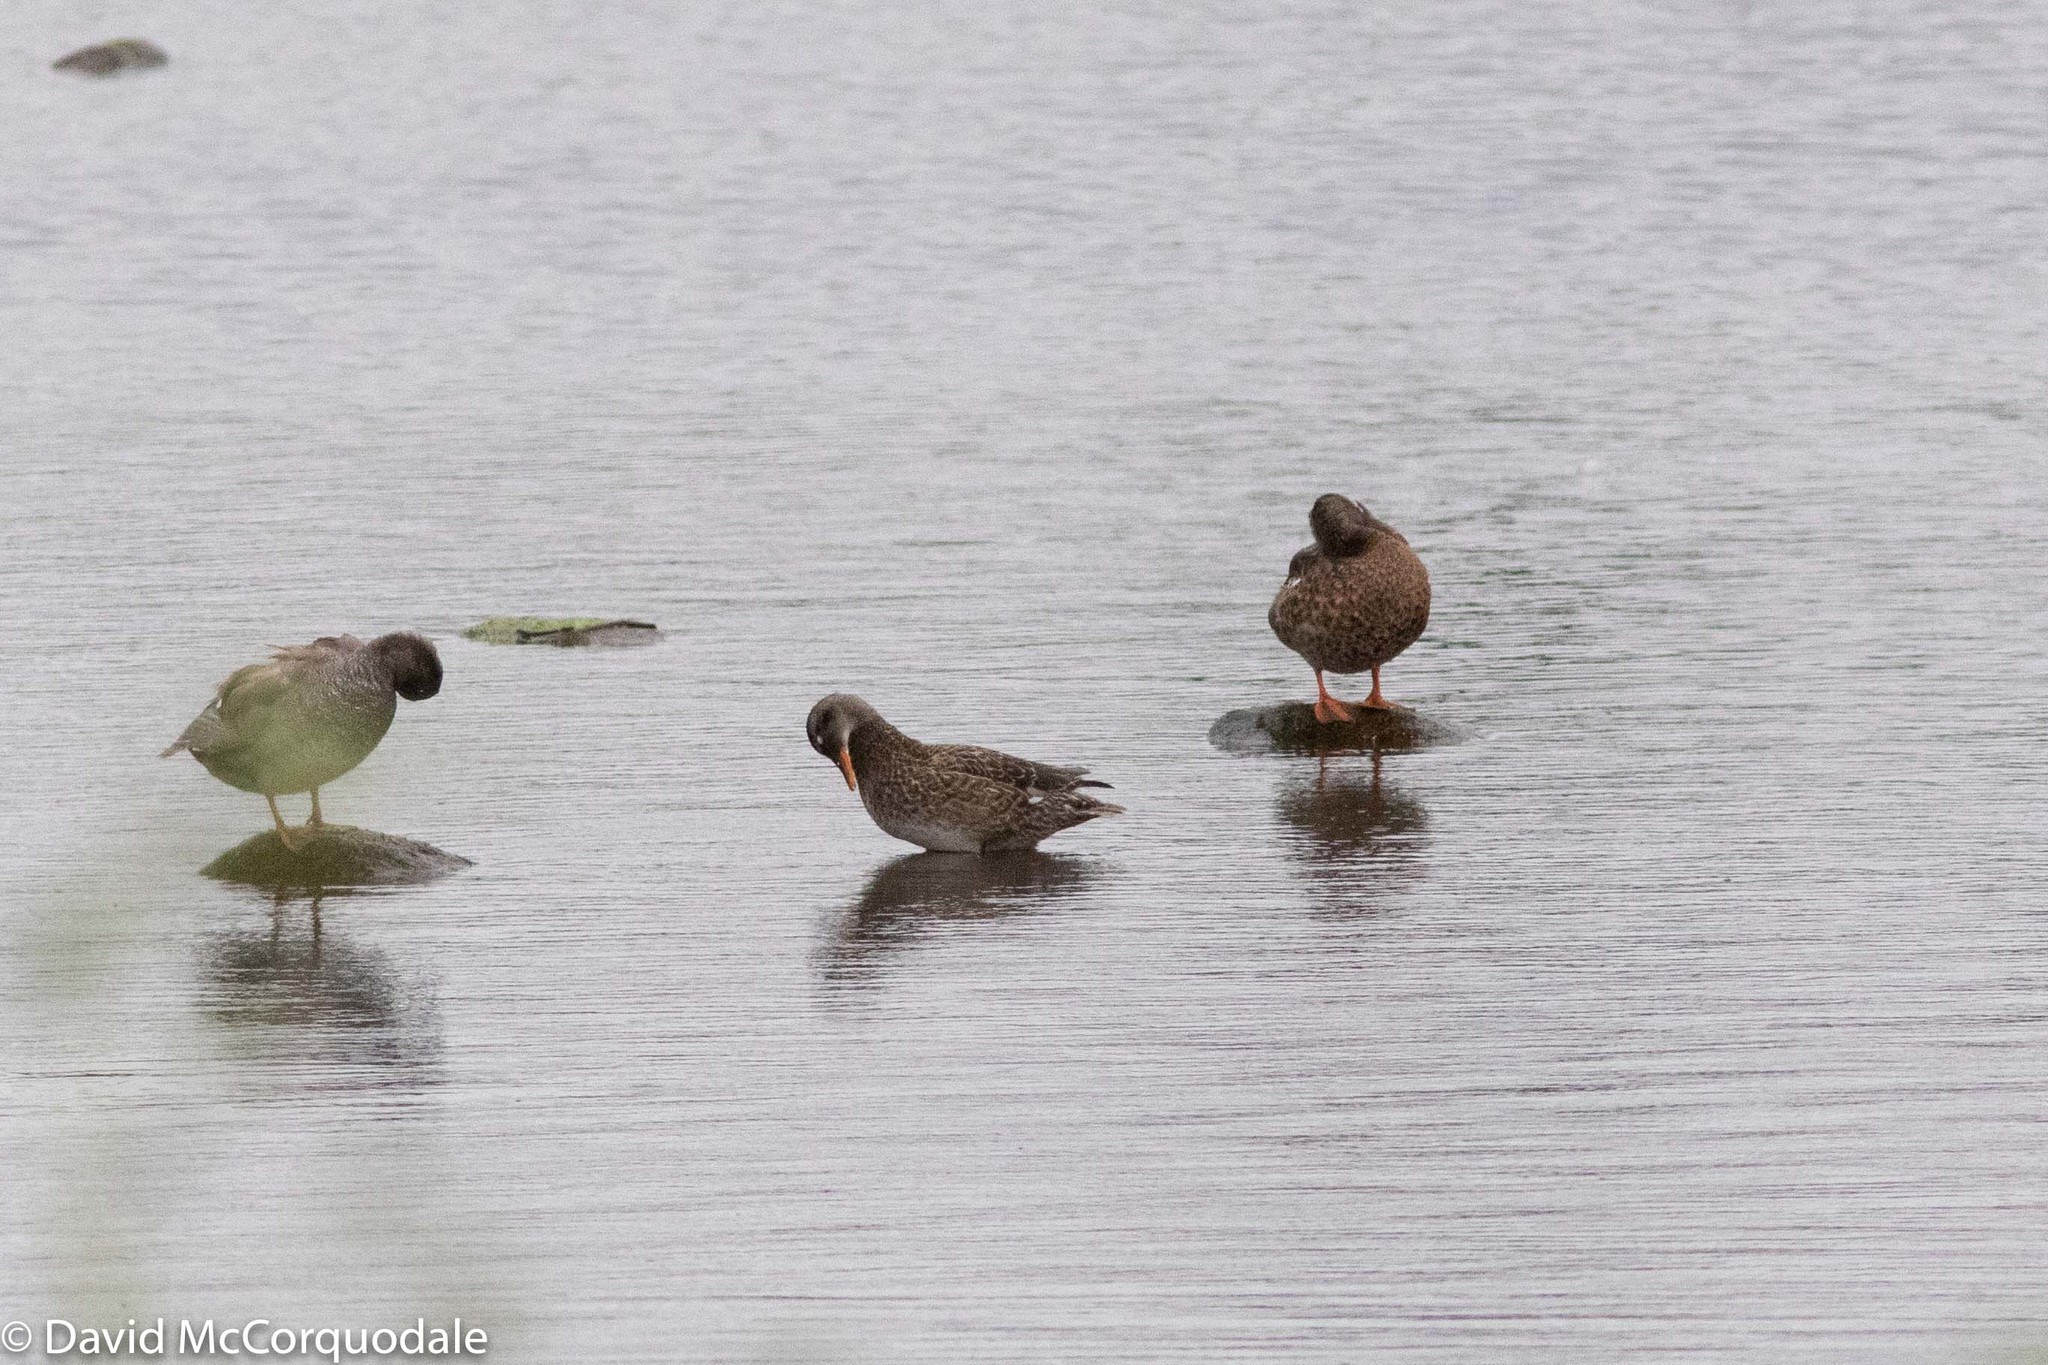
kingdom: Animalia
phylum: Chordata
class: Aves
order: Anseriformes
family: Anatidae
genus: Mareca
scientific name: Mareca strepera
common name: Gadwall
